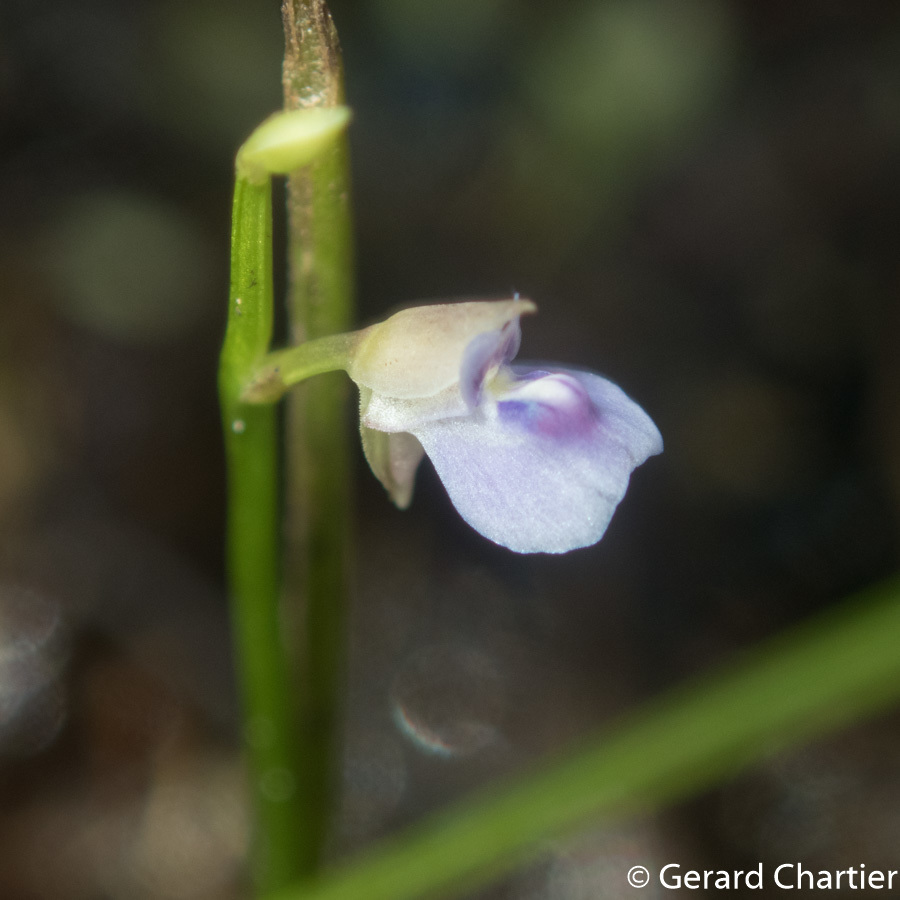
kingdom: Plantae
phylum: Tracheophyta
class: Magnoliopsida
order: Lamiales
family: Lentibulariaceae
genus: Utricularia
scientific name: Utricularia uliginosa
